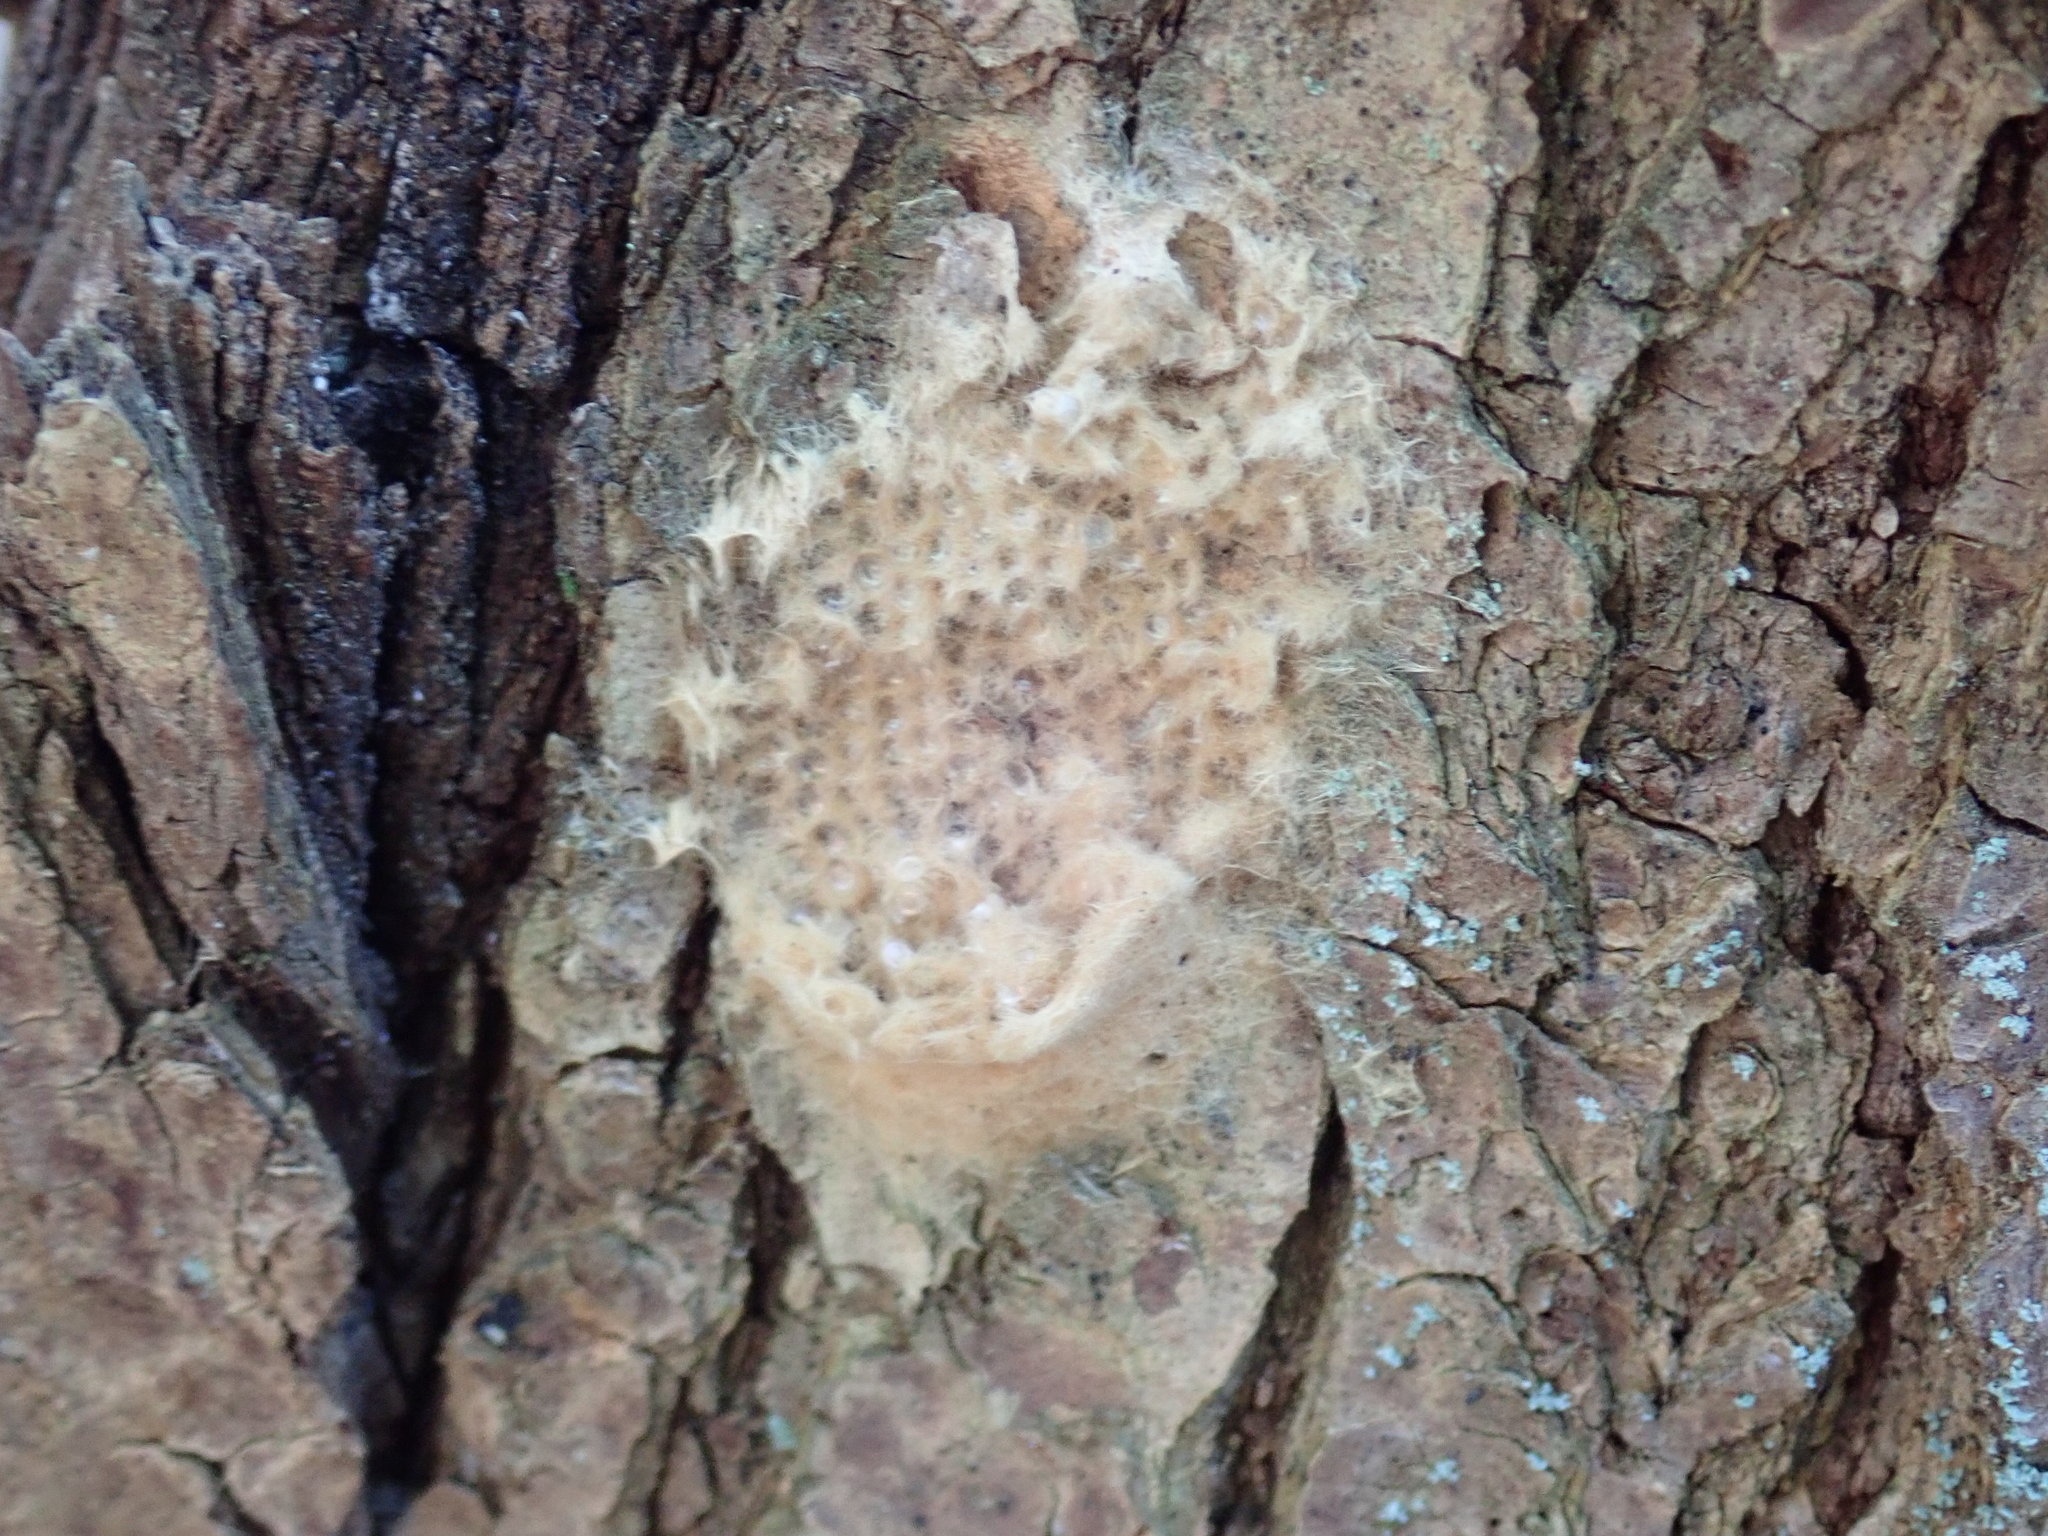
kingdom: Animalia
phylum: Arthropoda
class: Insecta
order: Lepidoptera
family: Erebidae
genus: Lymantria
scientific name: Lymantria dispar
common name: Gypsy moth
